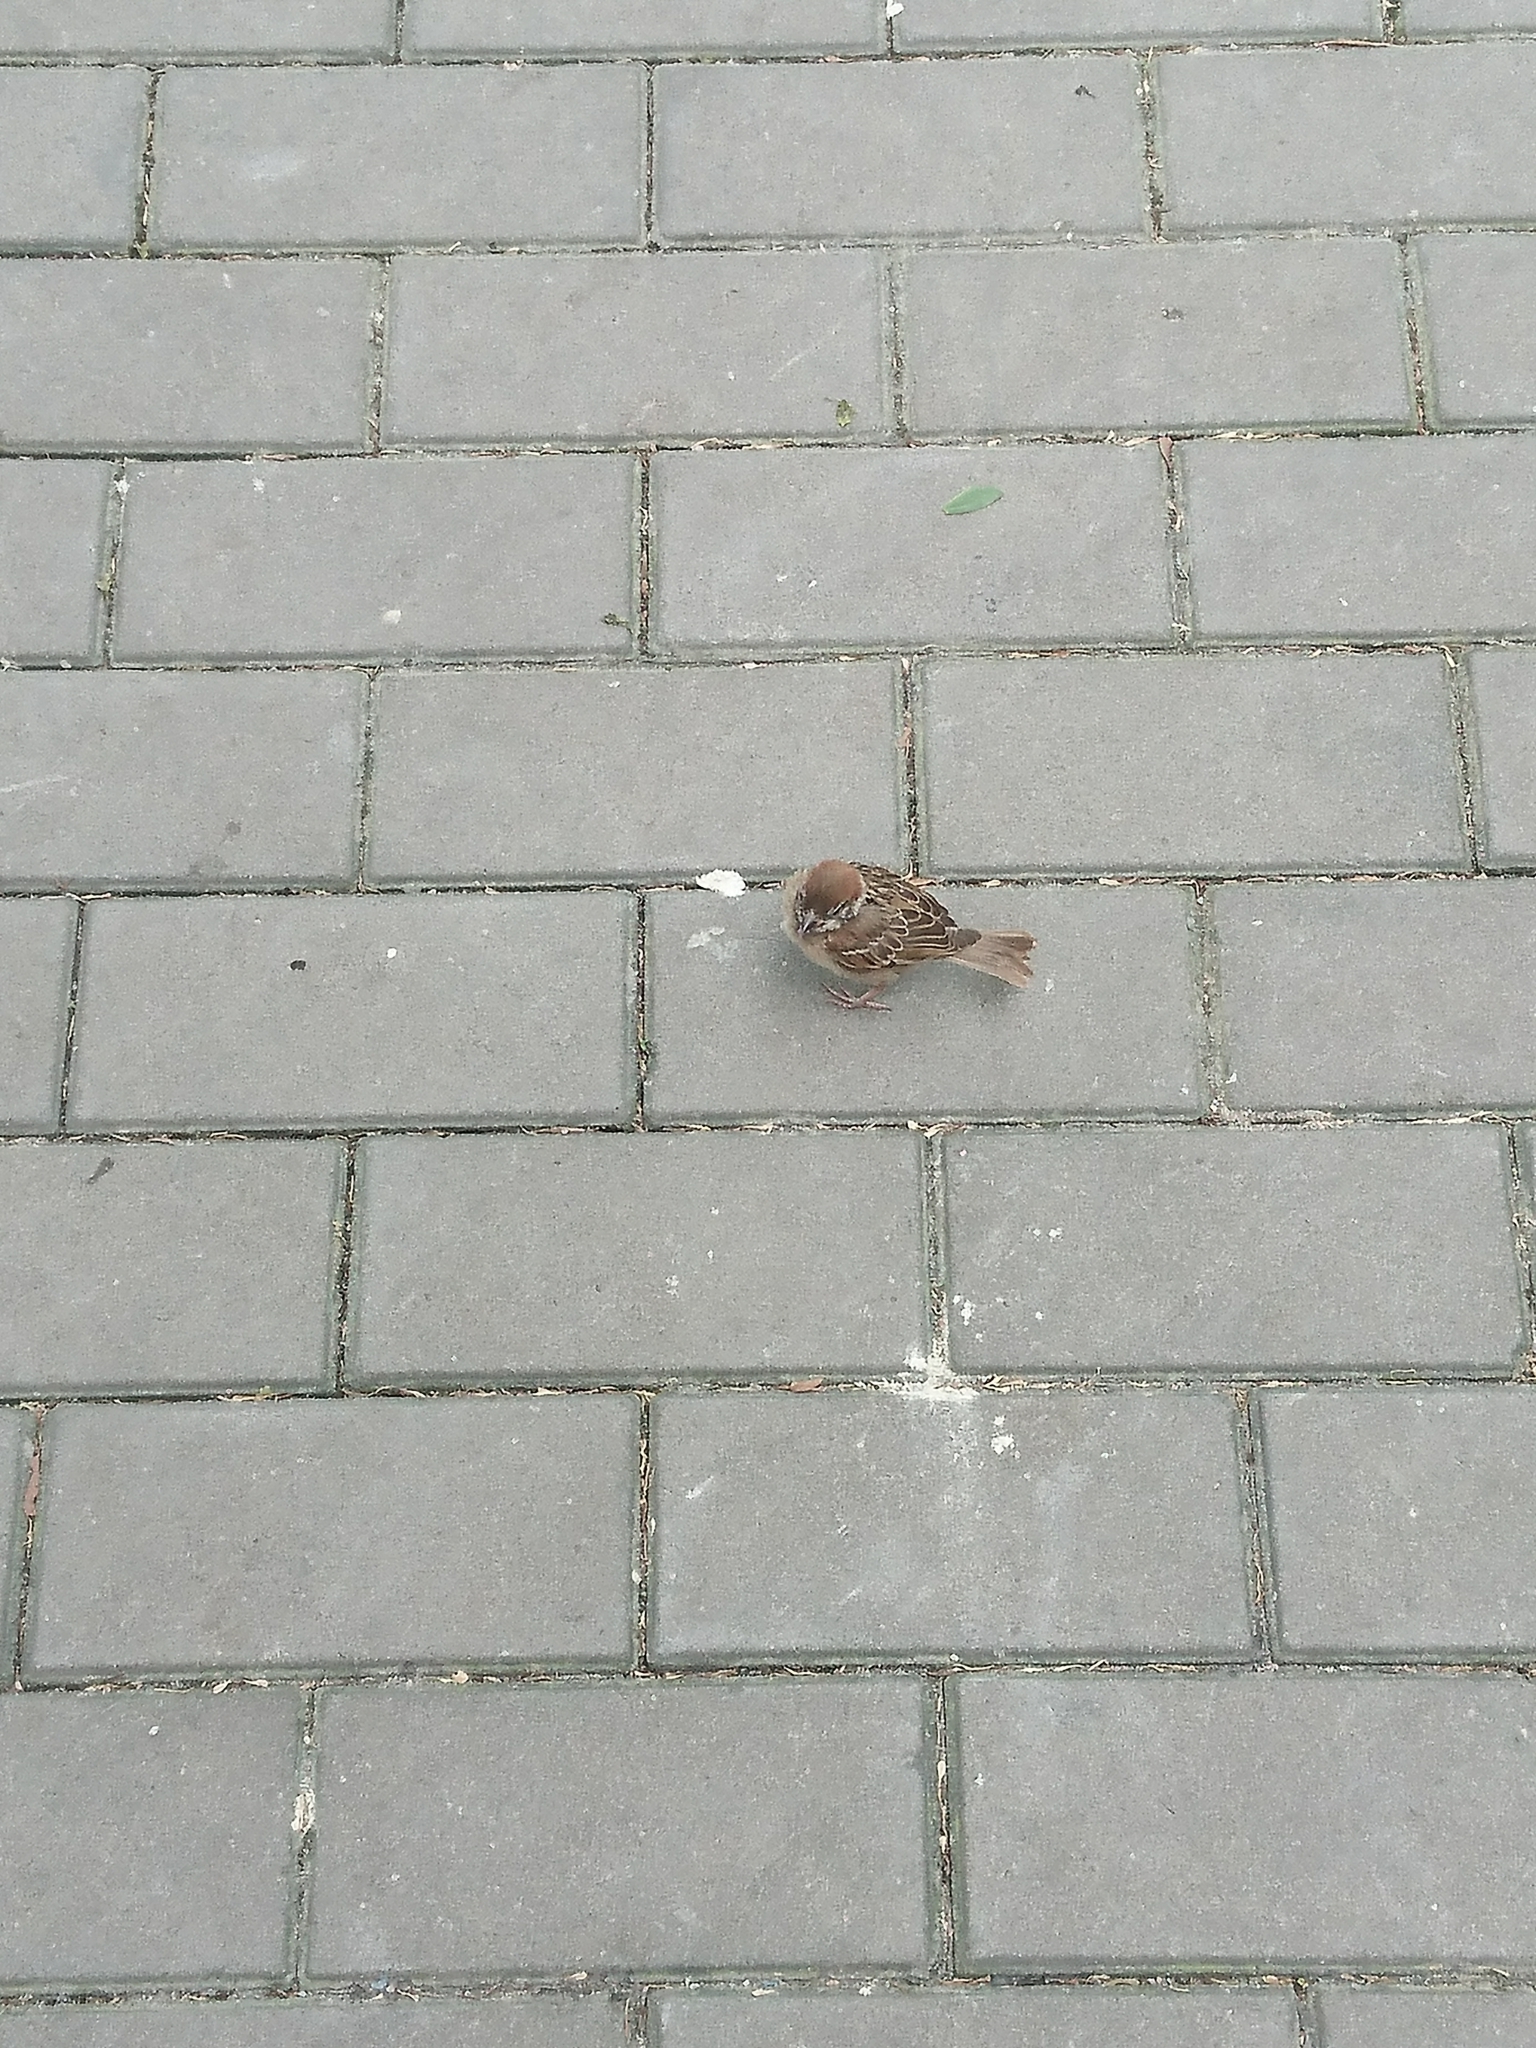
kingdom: Animalia
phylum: Chordata
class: Aves
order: Passeriformes
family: Passeridae
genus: Passer
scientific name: Passer montanus
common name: Eurasian tree sparrow
